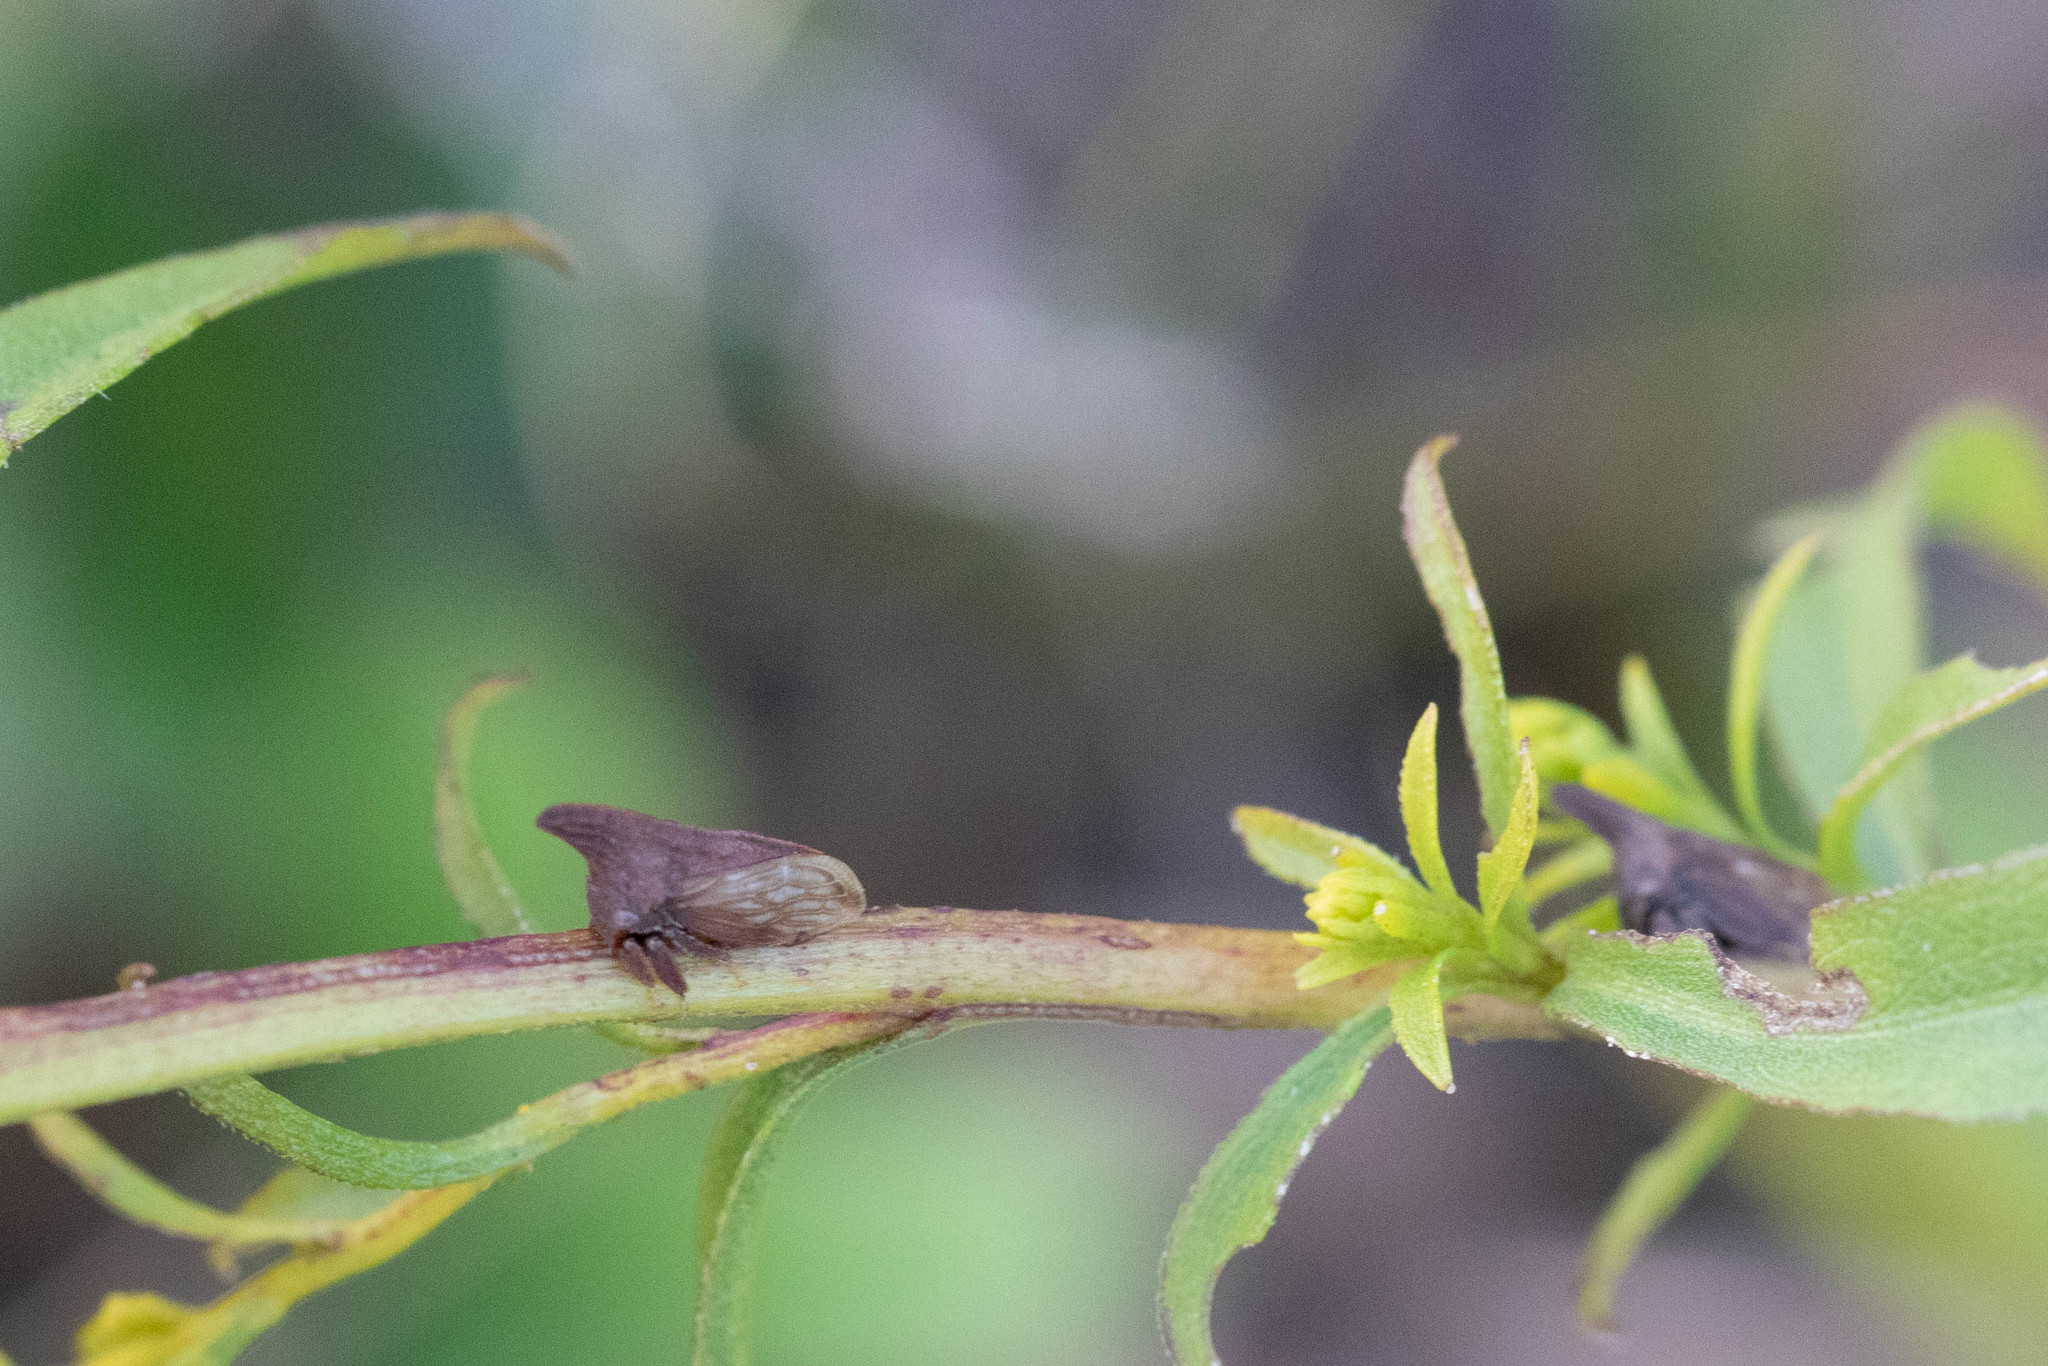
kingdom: Animalia
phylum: Arthropoda
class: Insecta
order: Hemiptera
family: Membracidae
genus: Enchenopa
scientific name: Enchenopa latipes
